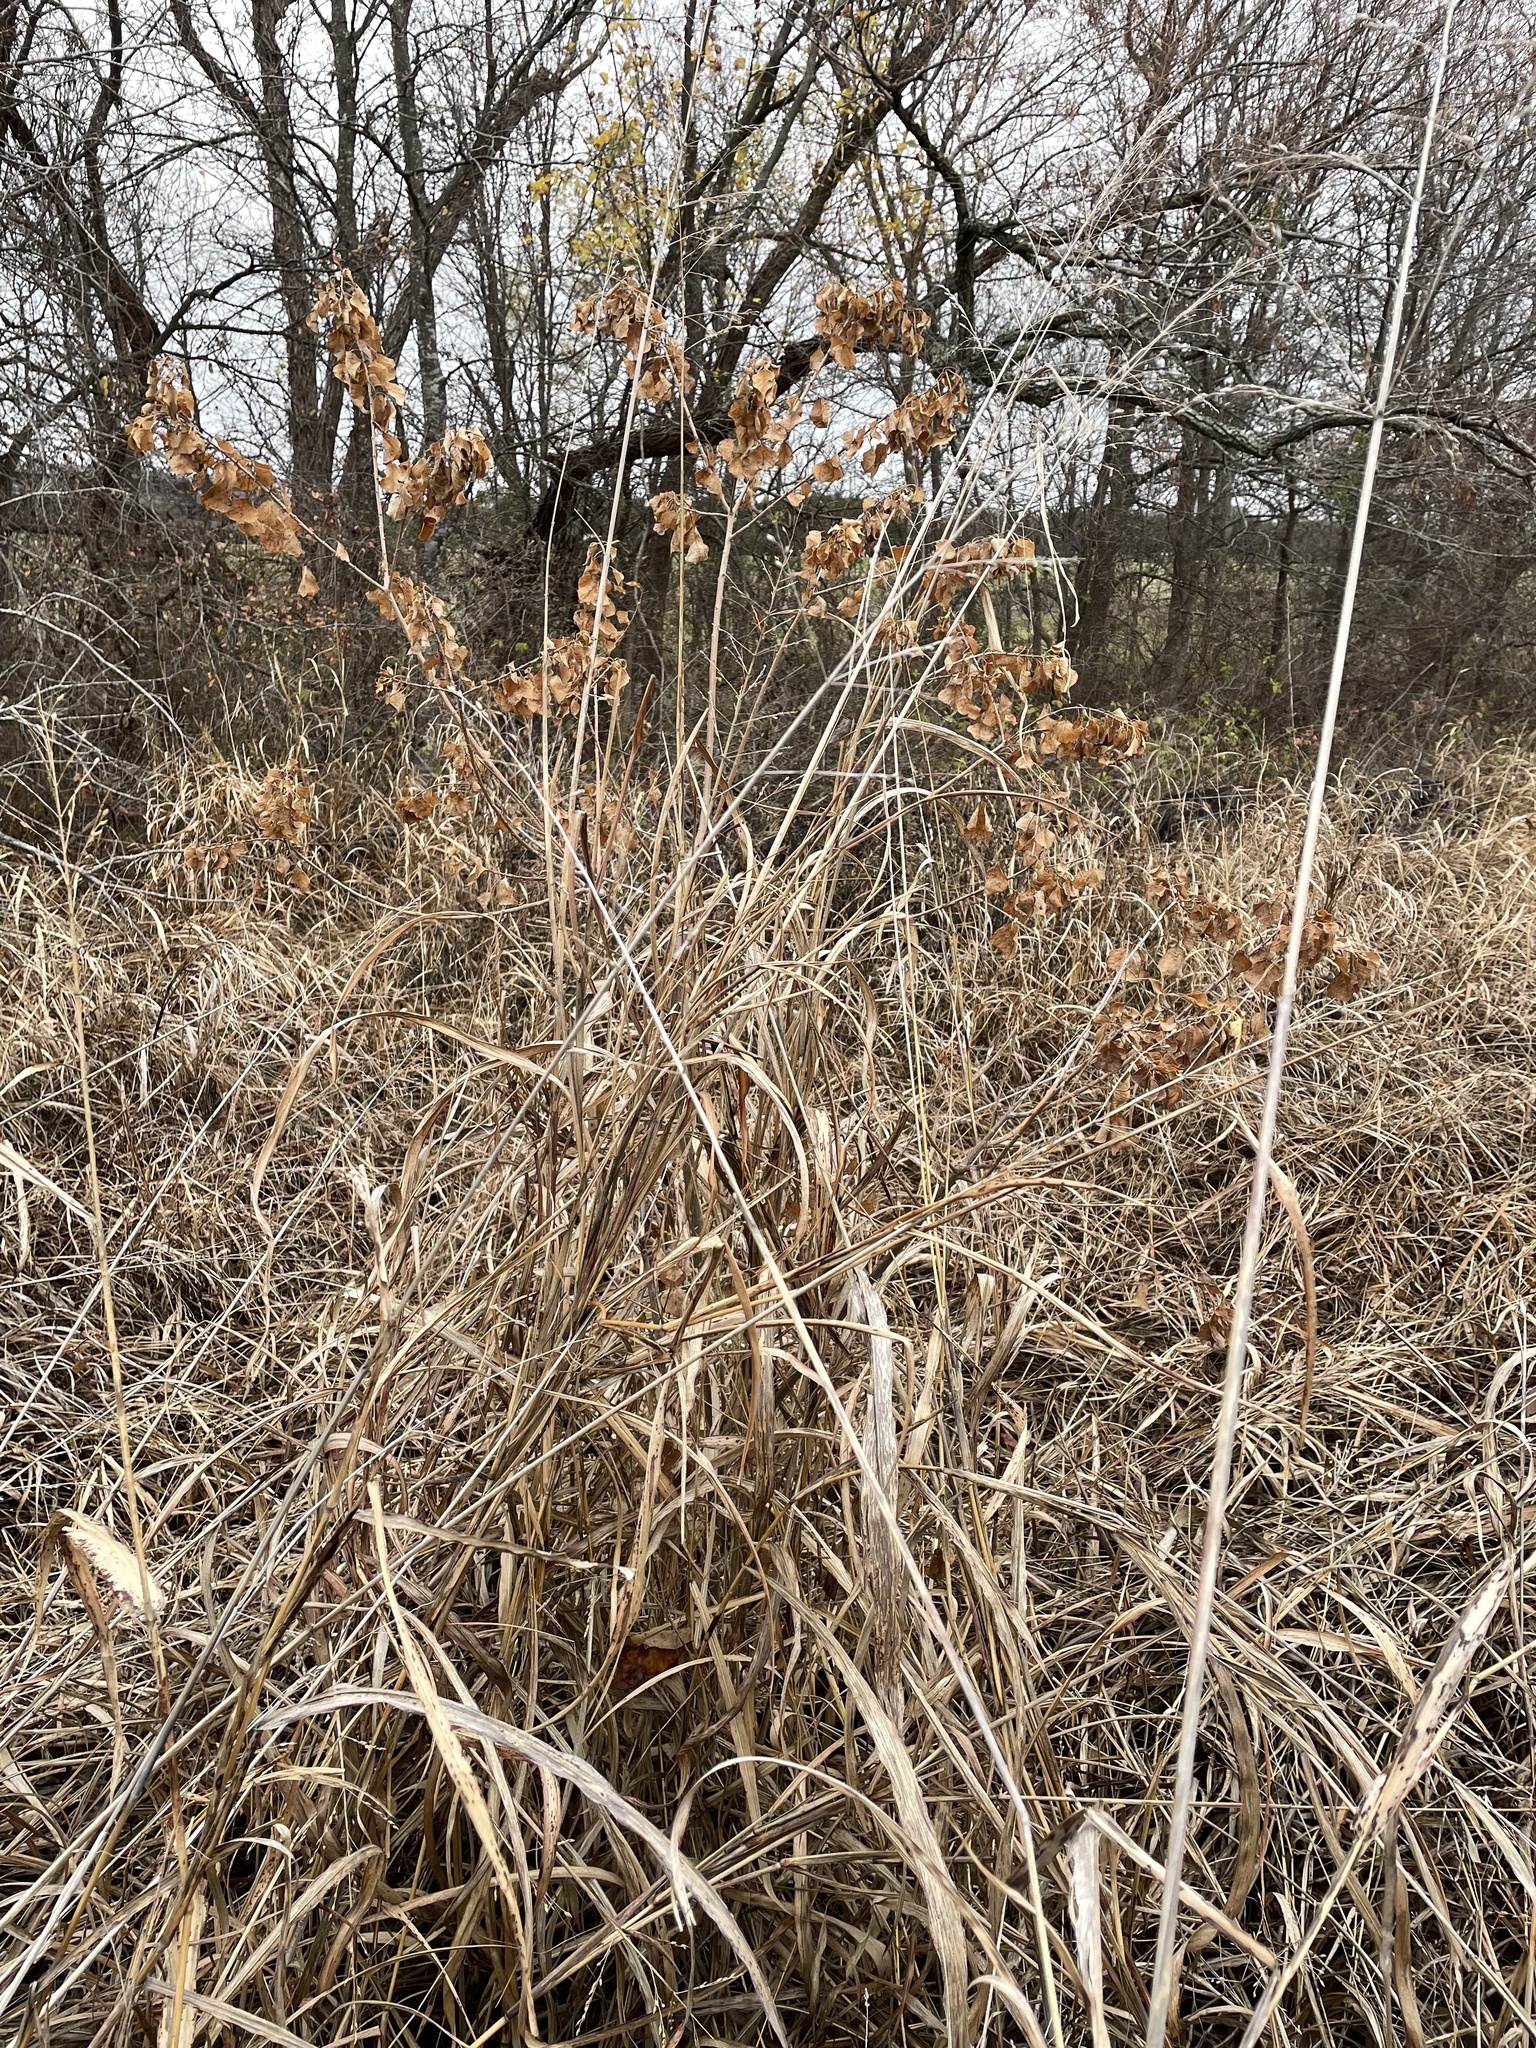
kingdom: Plantae
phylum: Tracheophyta
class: Magnoliopsida
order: Malpighiales
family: Euphorbiaceae
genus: Triadica
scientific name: Triadica sebifera
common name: Chinese tallow
